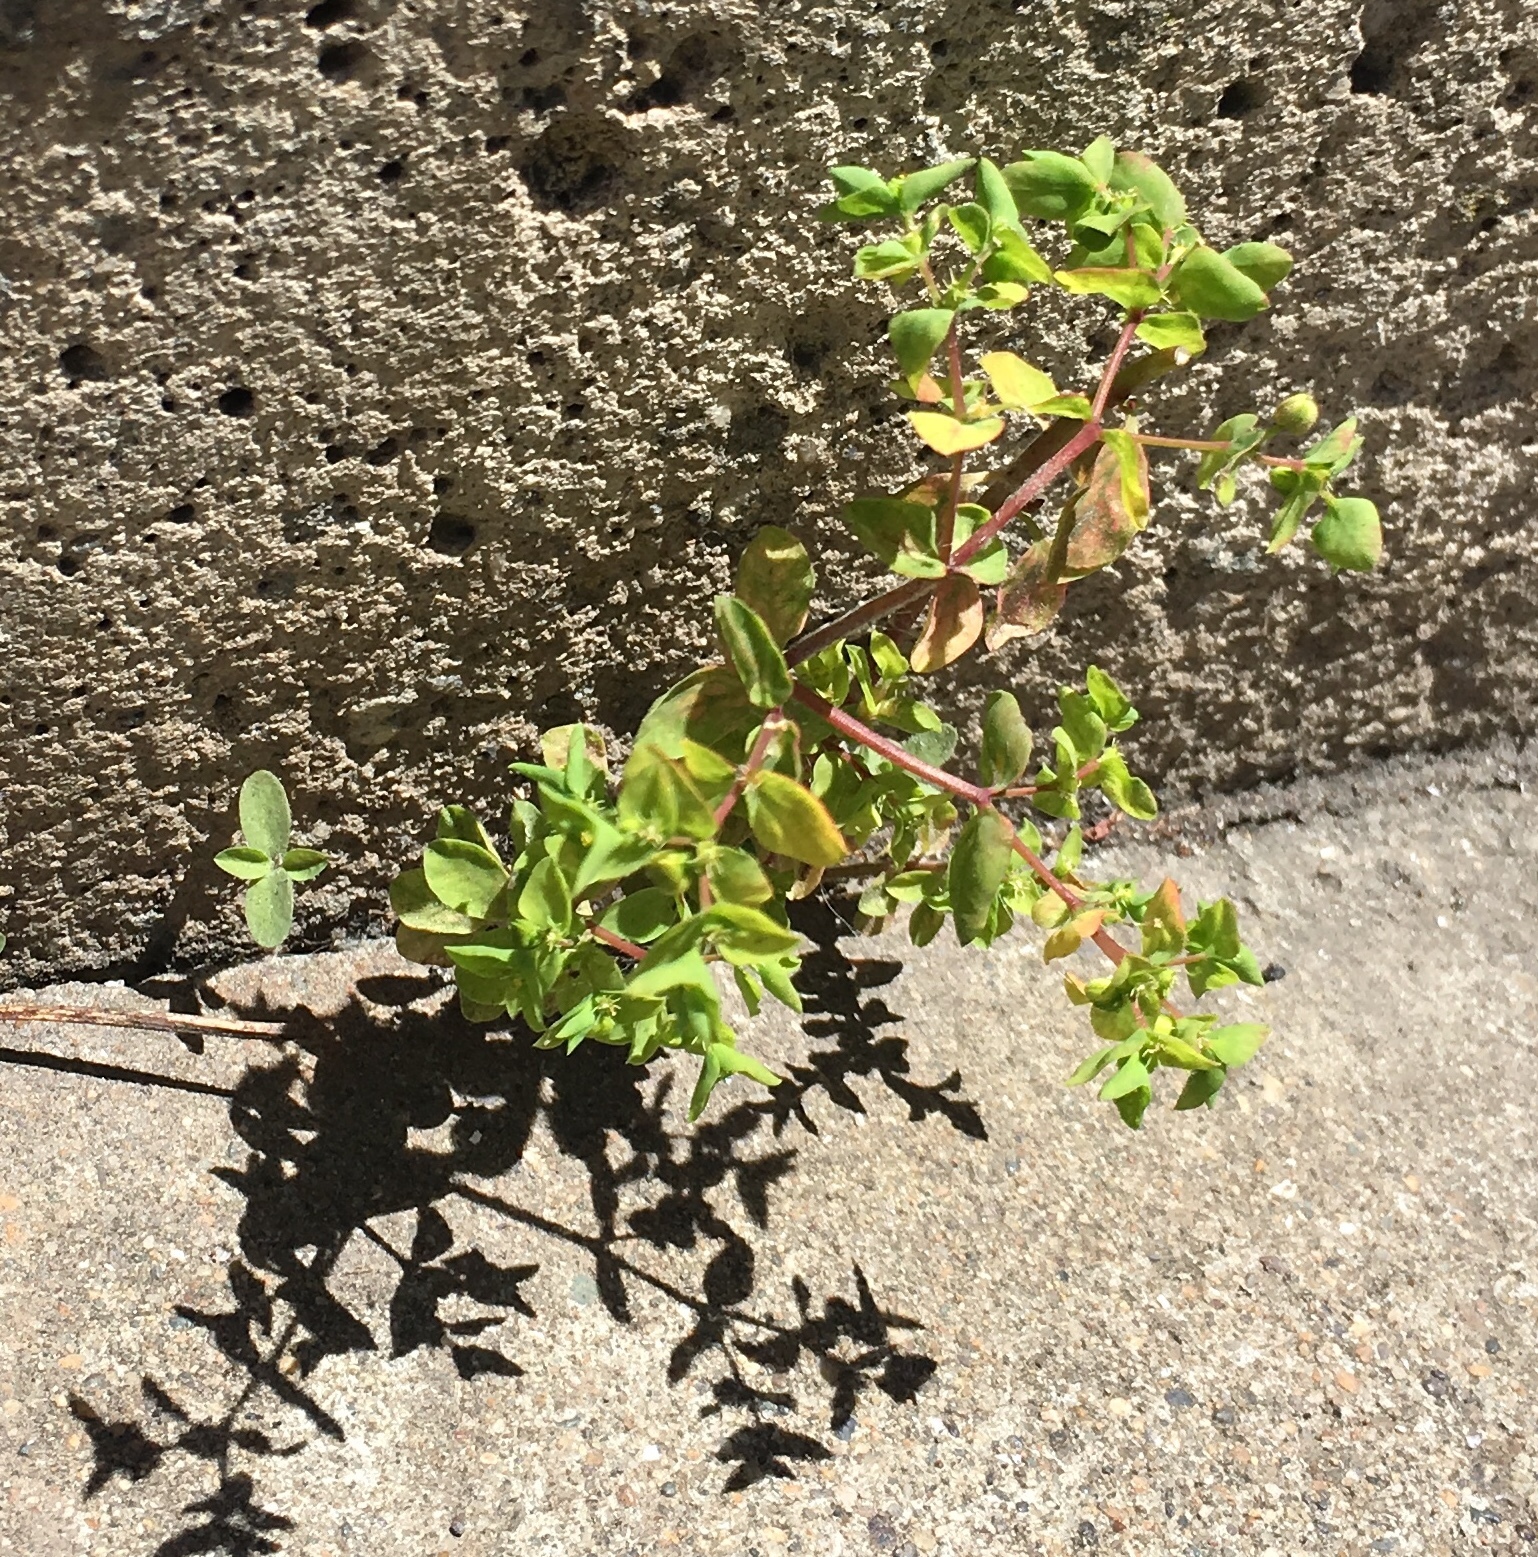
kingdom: Plantae
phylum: Tracheophyta
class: Magnoliopsida
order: Malpighiales
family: Euphorbiaceae
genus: Euphorbia
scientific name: Euphorbia peplus
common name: Petty spurge
